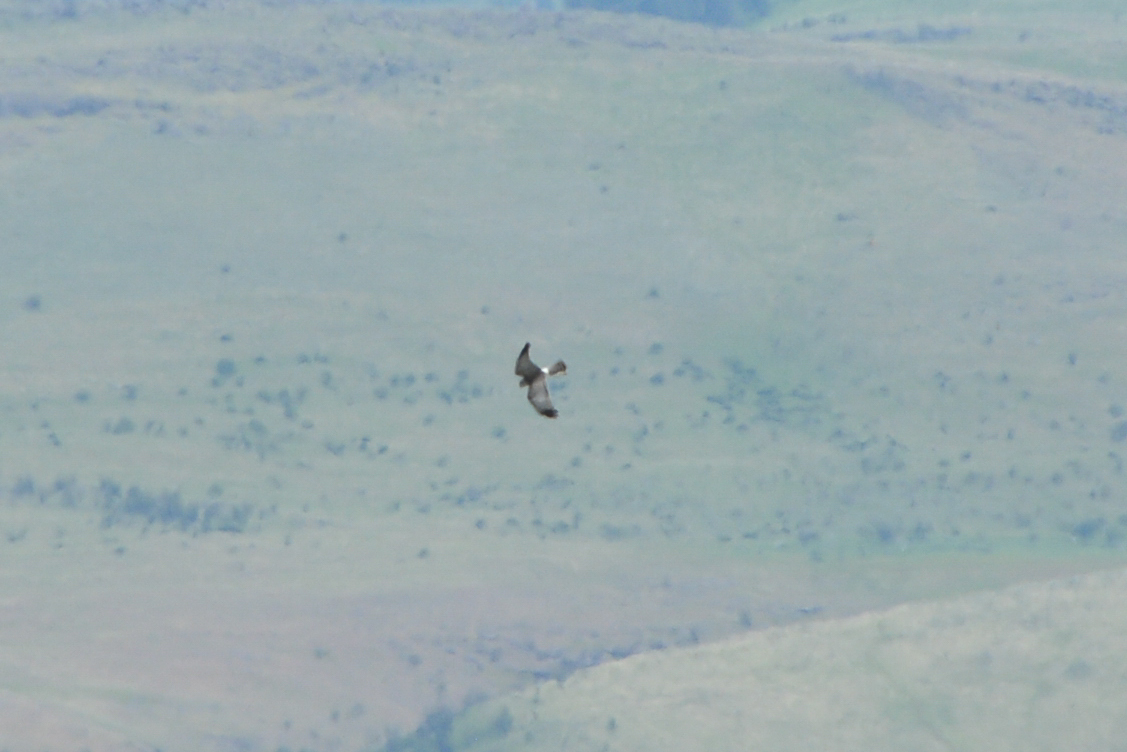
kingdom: Animalia
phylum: Chordata
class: Aves
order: Accipitriformes
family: Accipitridae
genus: Circus
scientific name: Circus cyaneus
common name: Hen harrier
